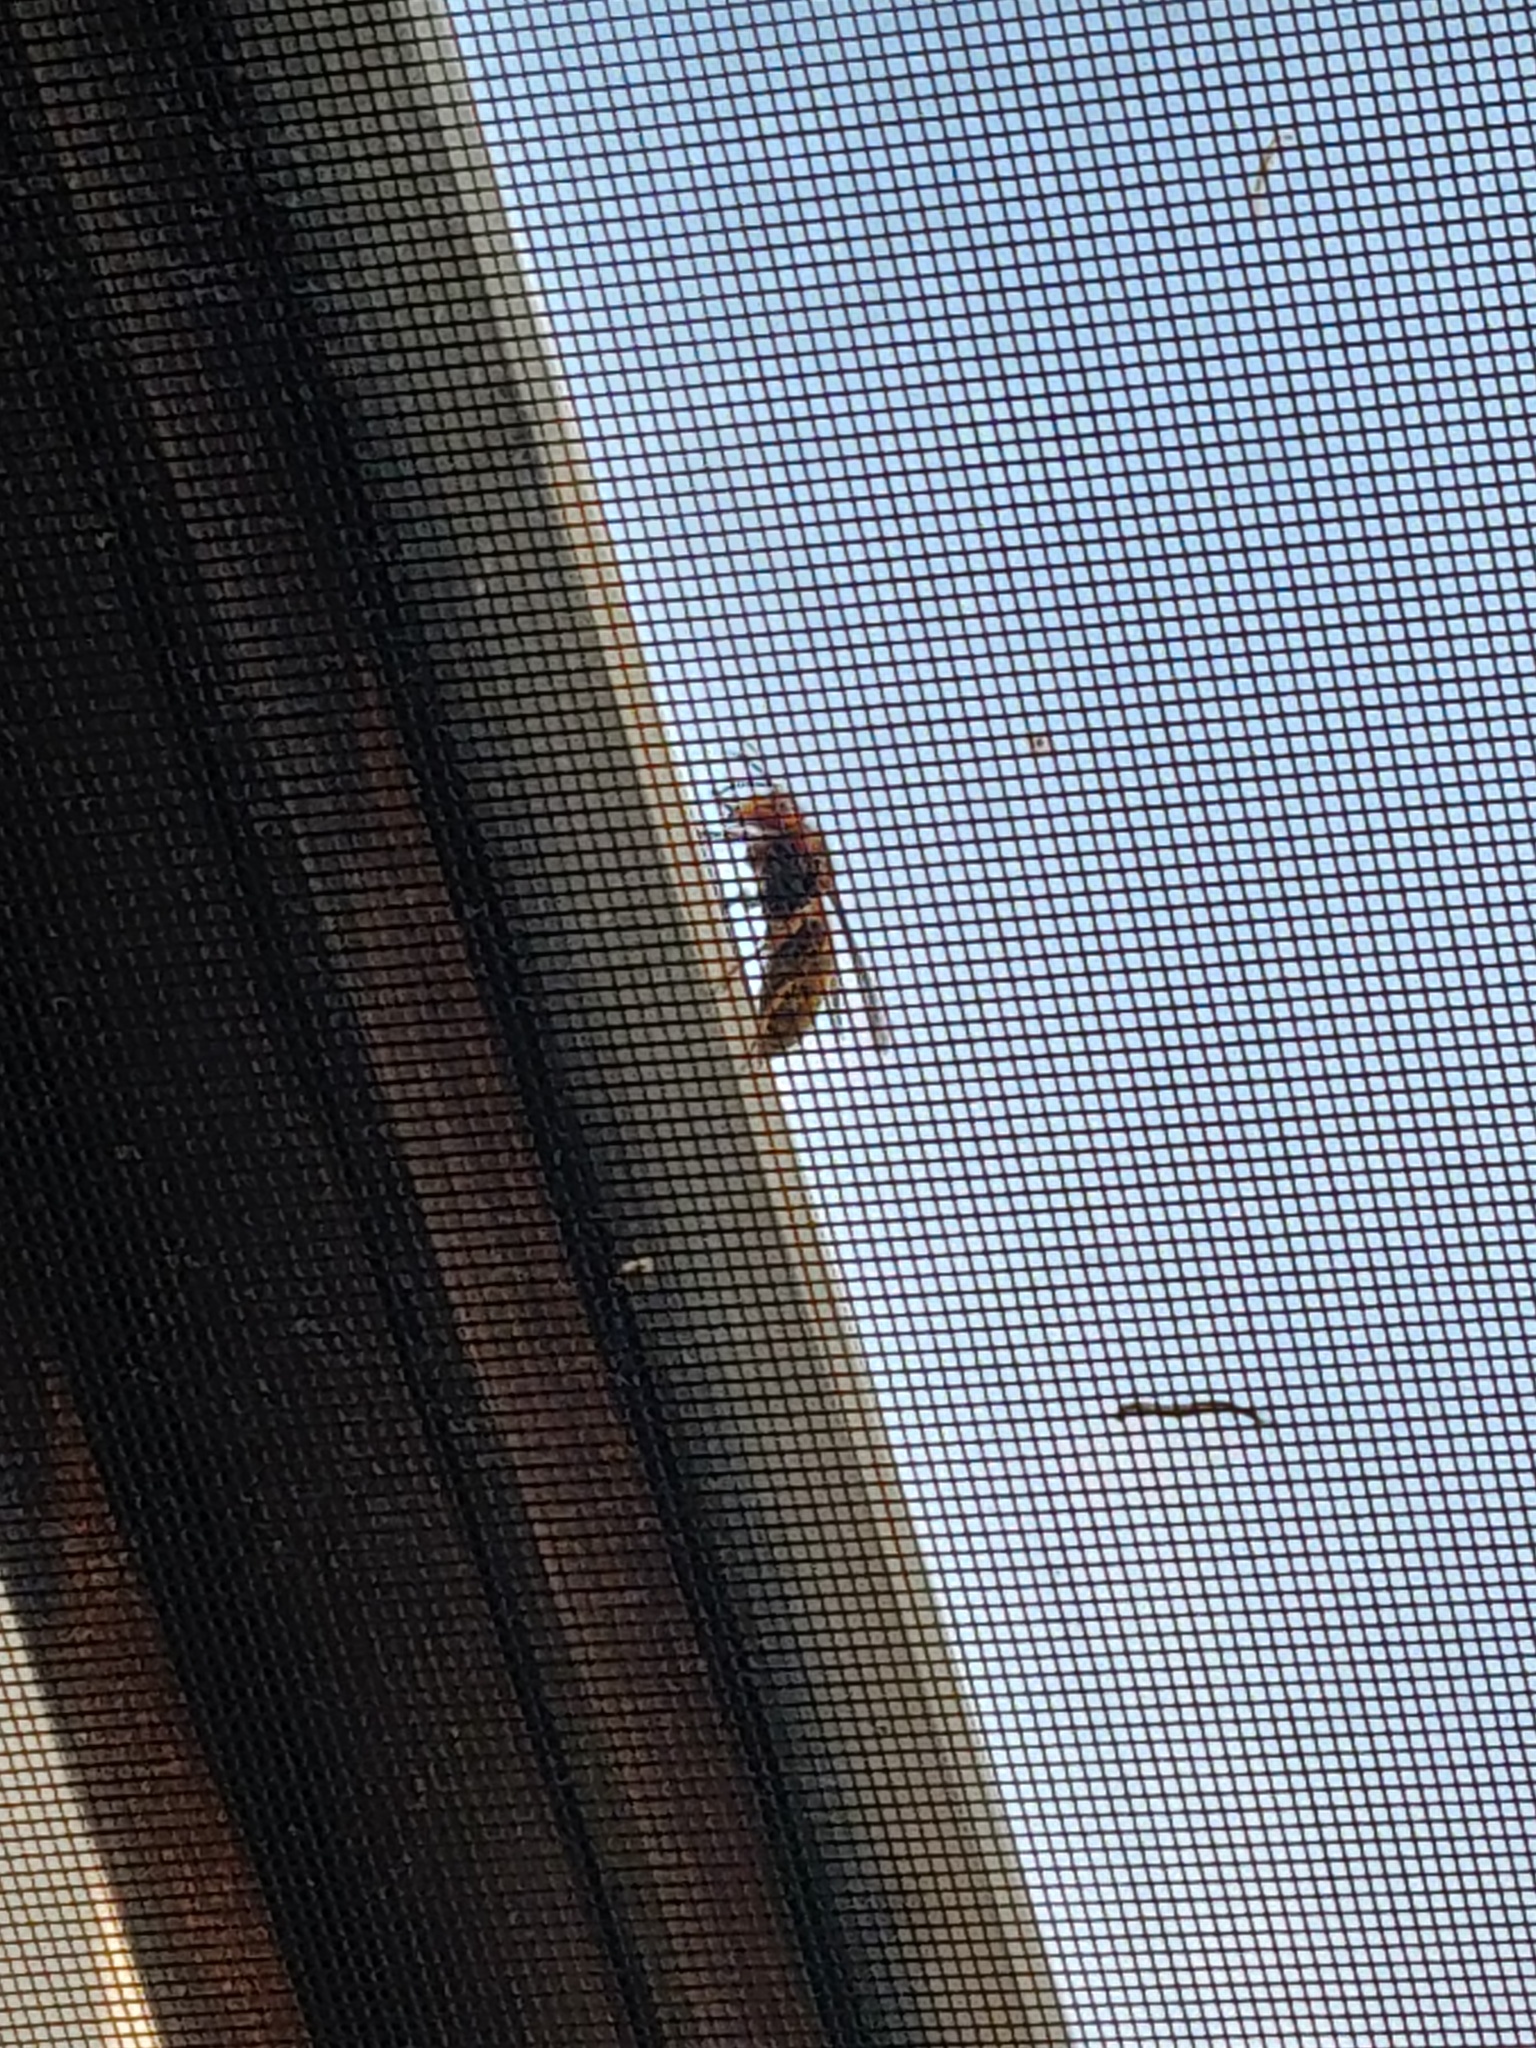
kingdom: Animalia
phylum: Arthropoda
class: Insecta
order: Hymenoptera
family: Vespidae
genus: Vespa
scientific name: Vespa crabro
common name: Hornet
